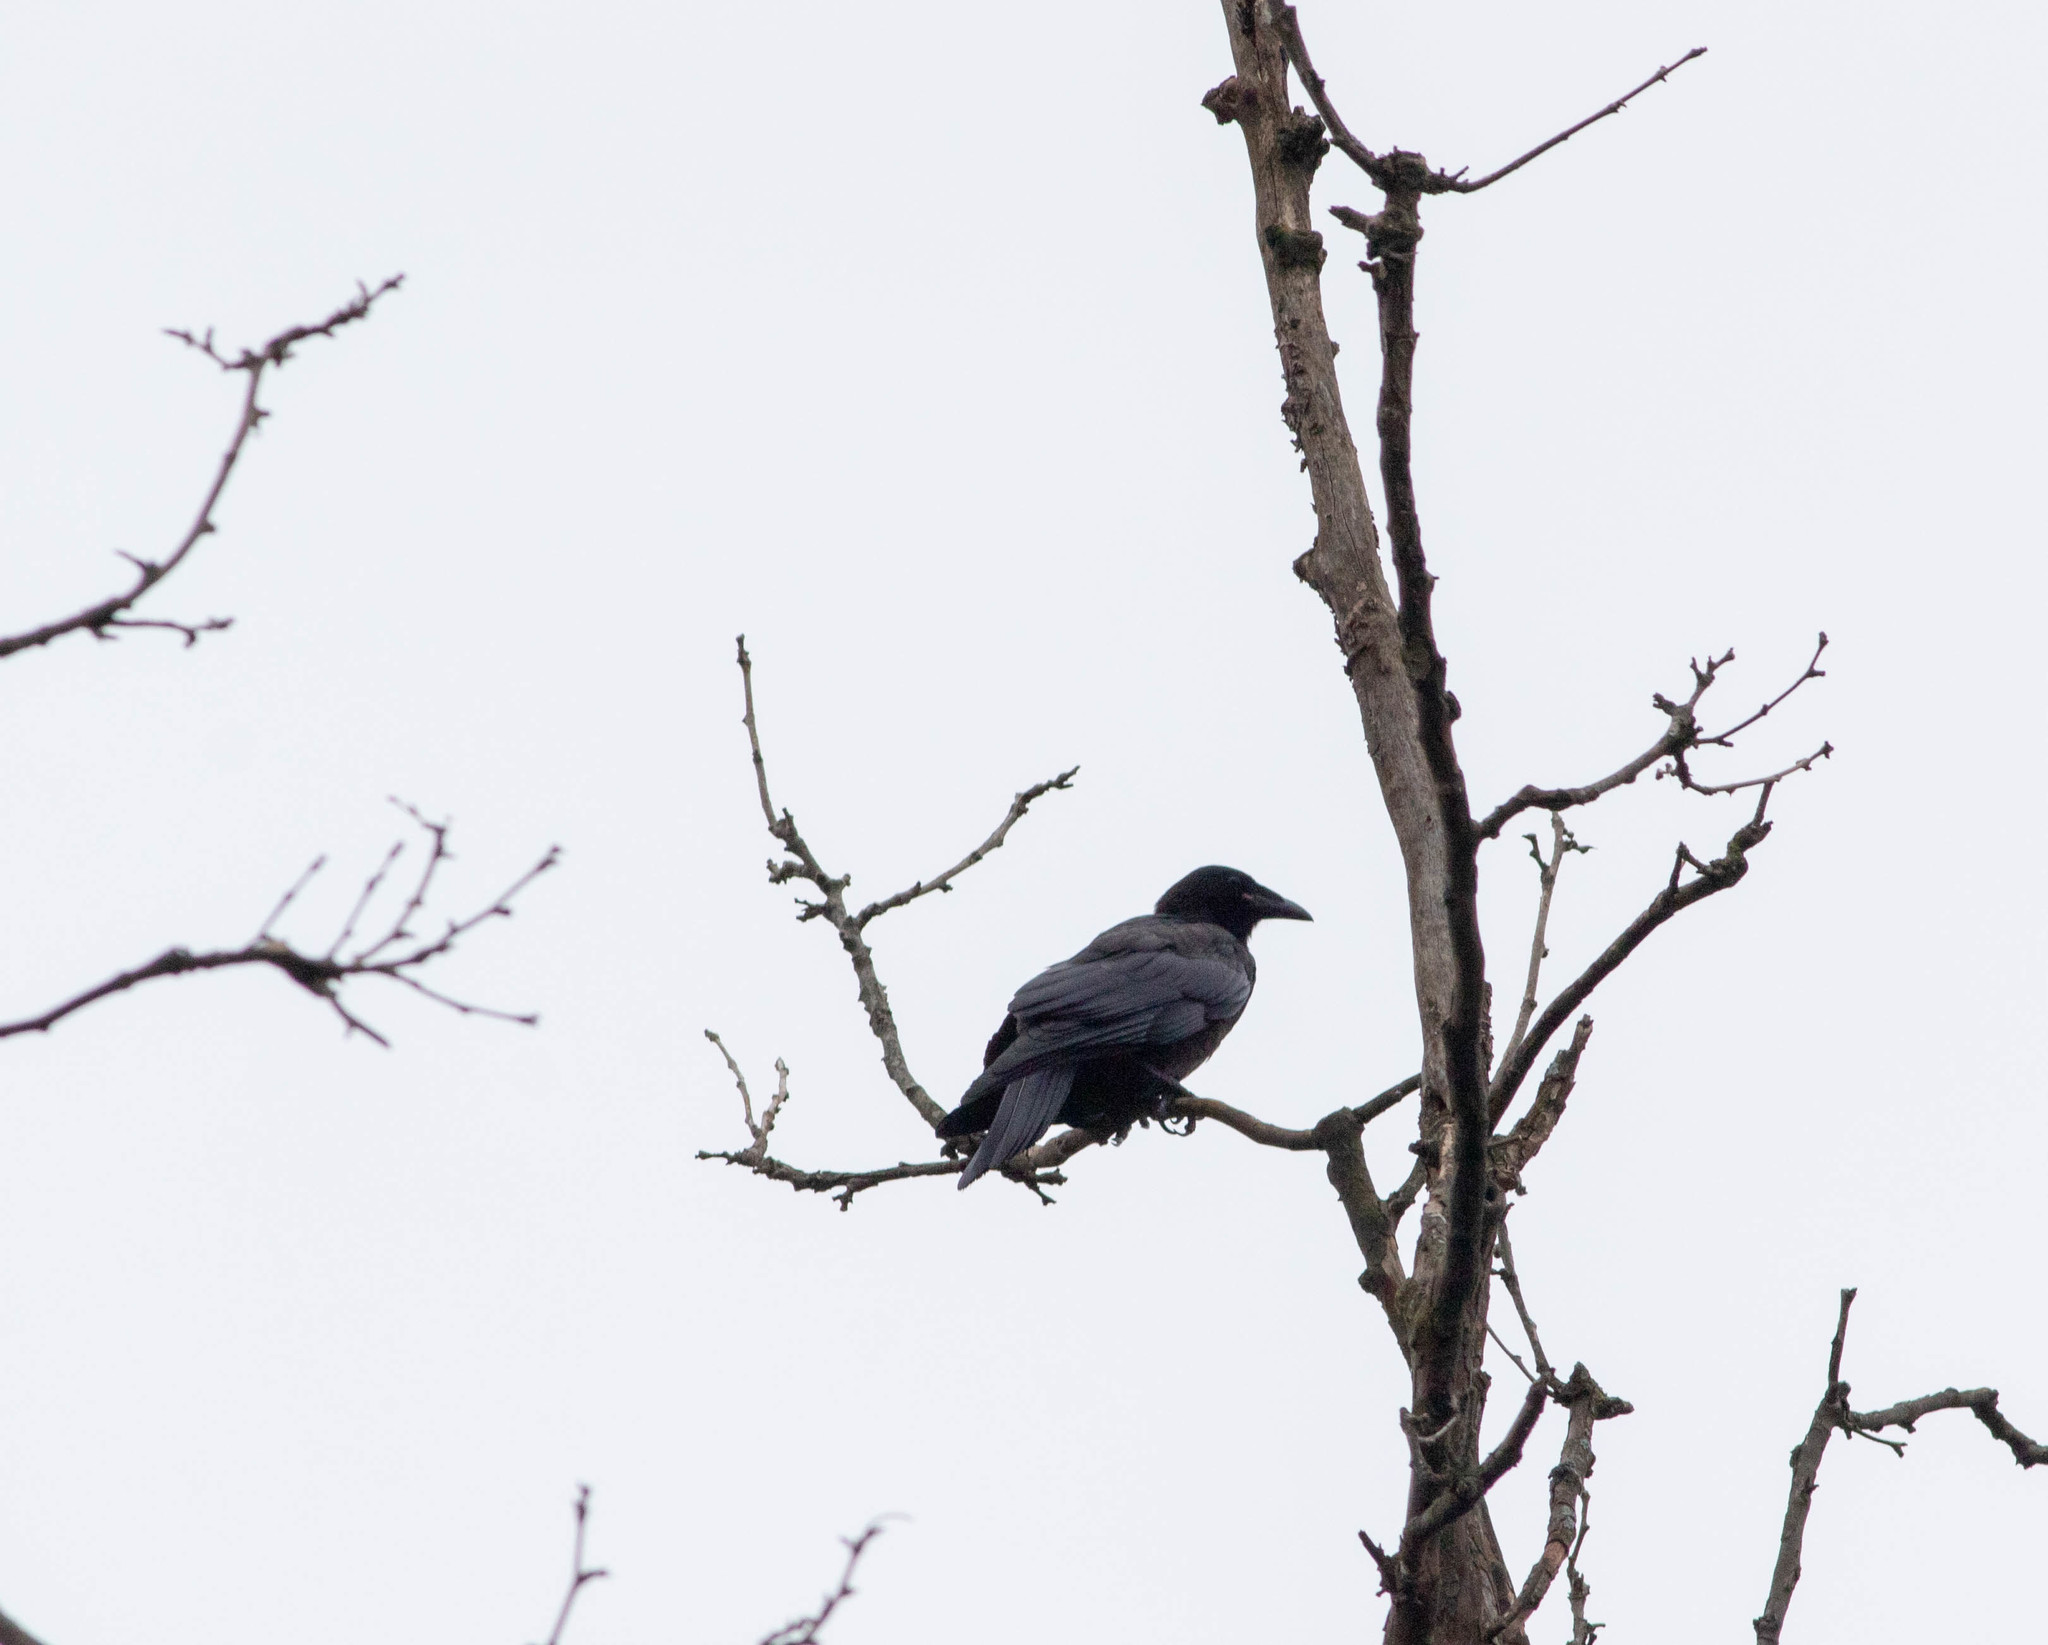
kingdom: Animalia
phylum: Chordata
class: Aves
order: Passeriformes
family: Corvidae
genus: Corvus
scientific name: Corvus ossifragus
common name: Fish crow
